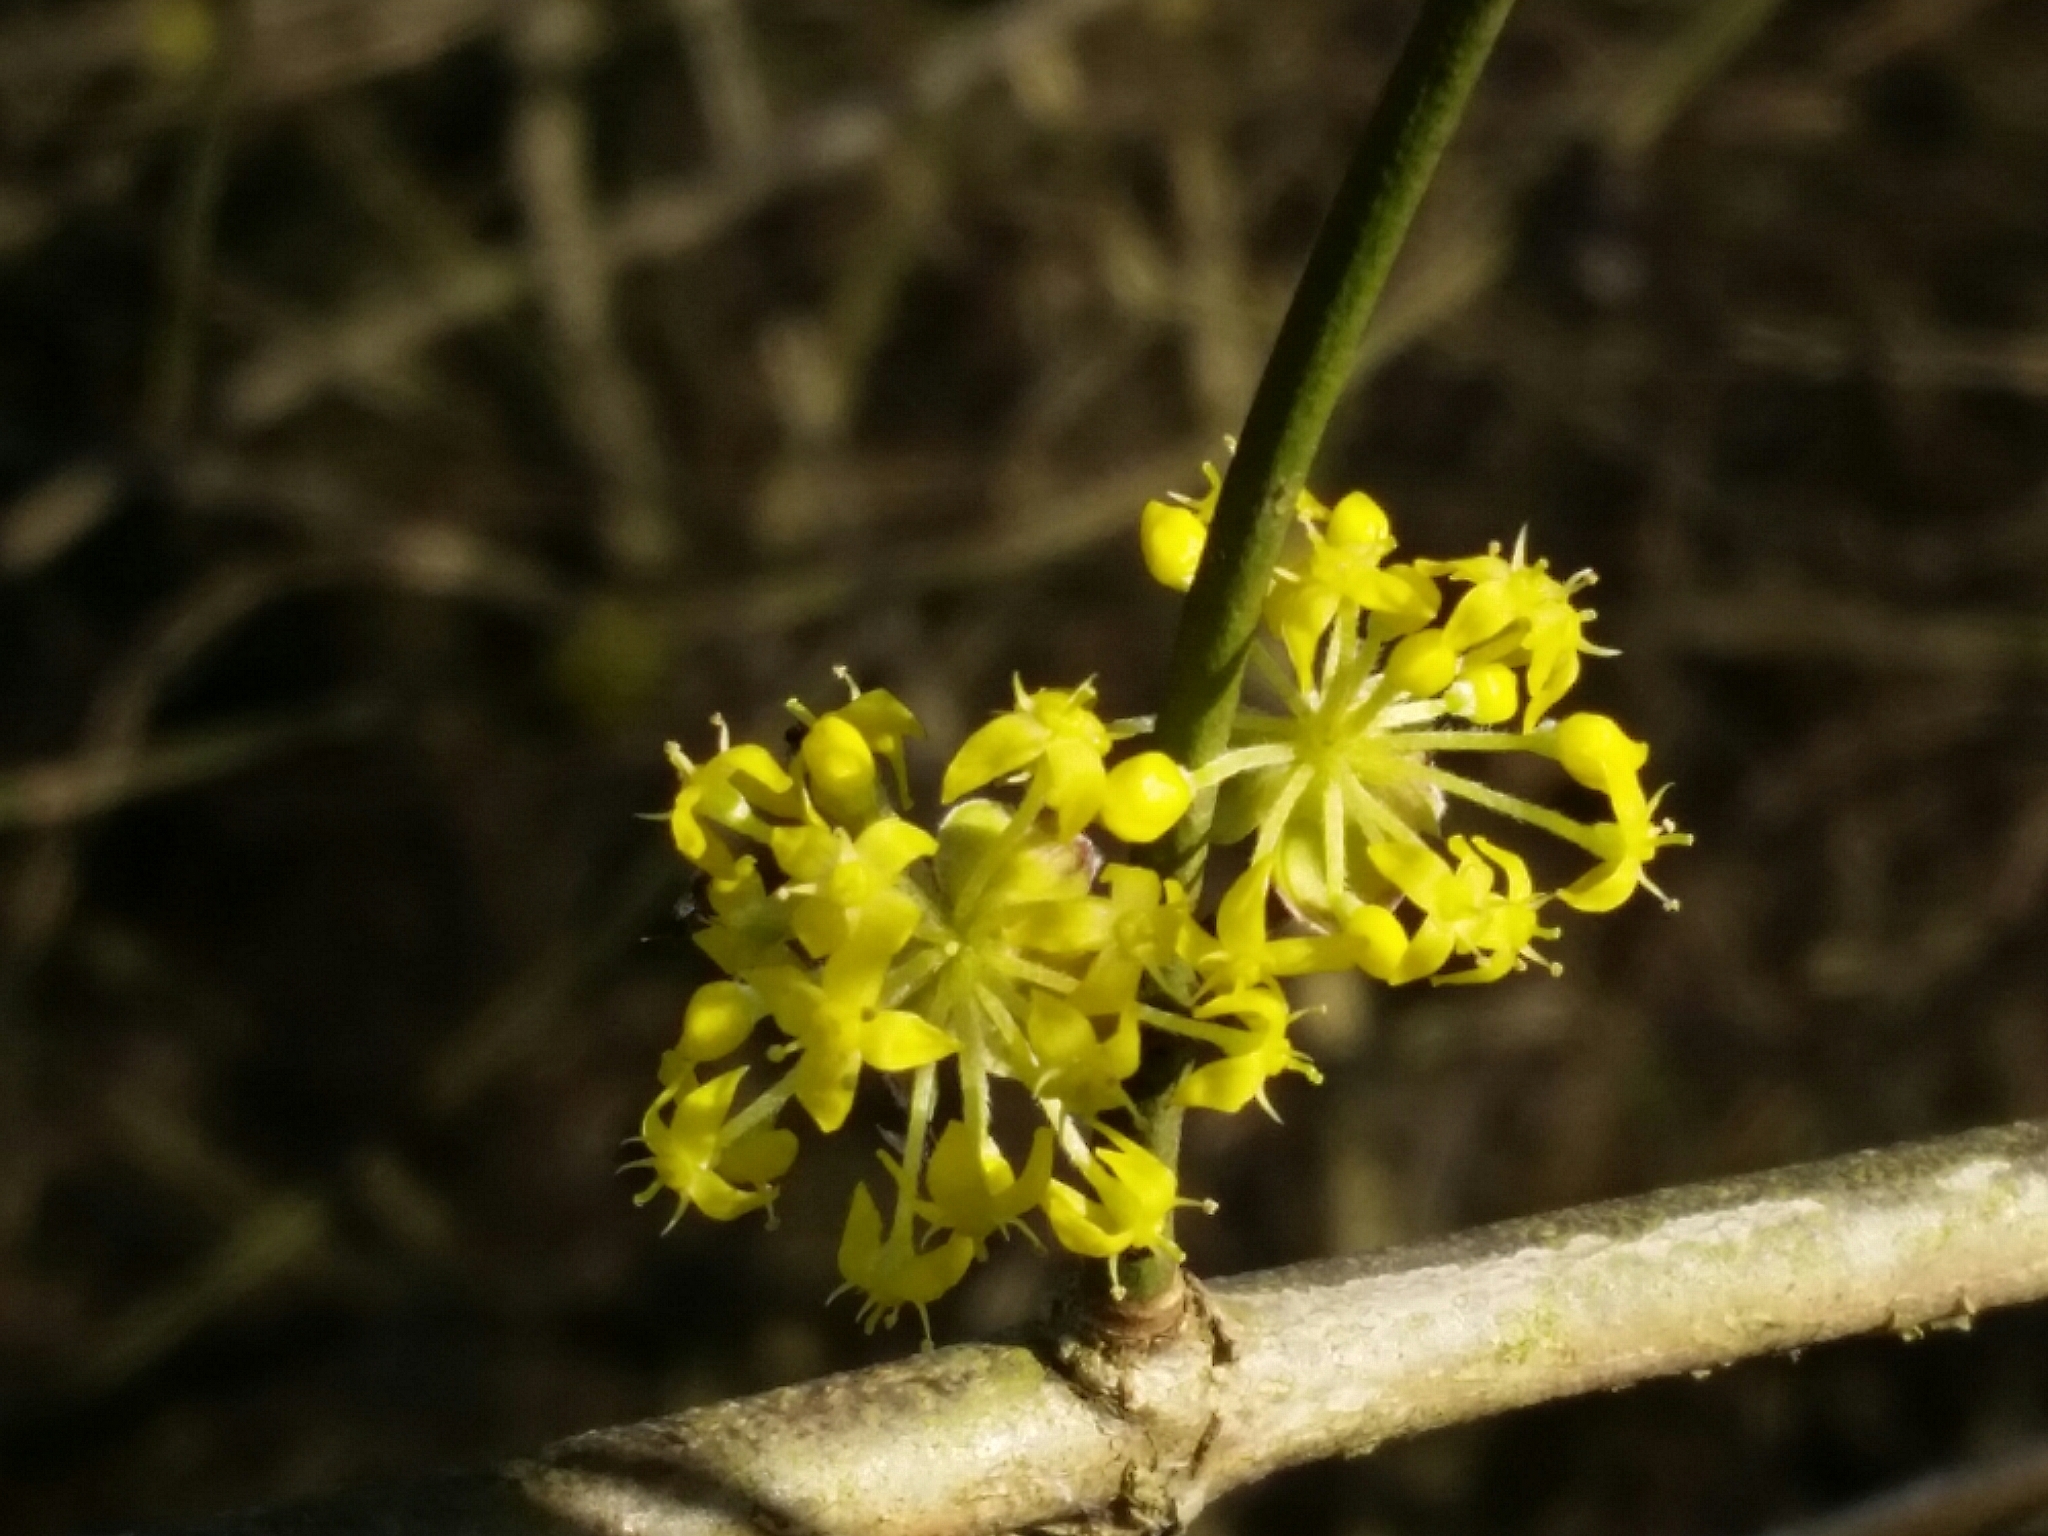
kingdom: Plantae
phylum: Tracheophyta
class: Magnoliopsida
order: Cornales
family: Cornaceae
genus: Cornus
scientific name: Cornus mas
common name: Cornelian-cherry
